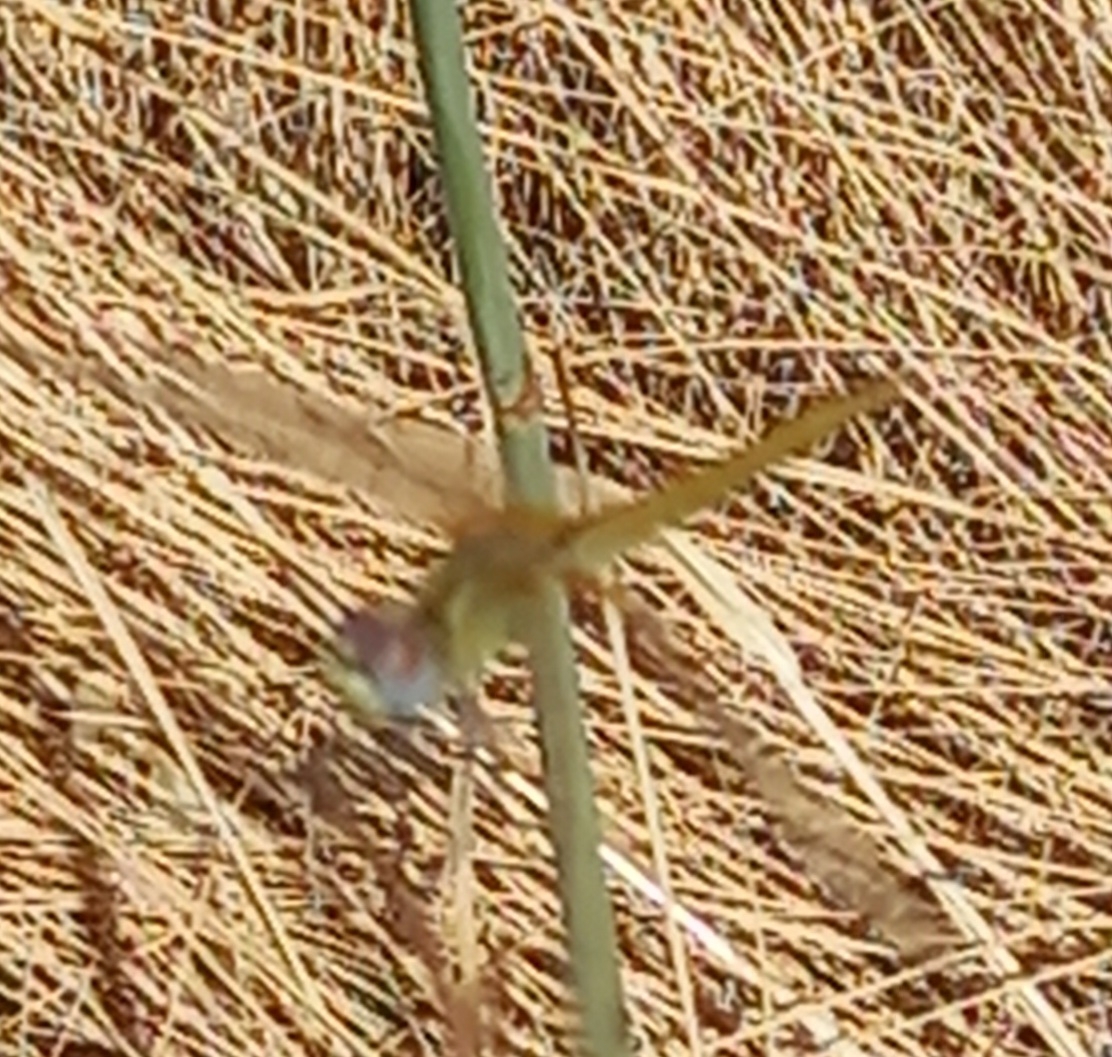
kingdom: Animalia
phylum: Arthropoda
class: Insecta
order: Odonata
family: Libellulidae
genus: Sympetrum
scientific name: Sympetrum fonscolombii
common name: Red-veined darter
